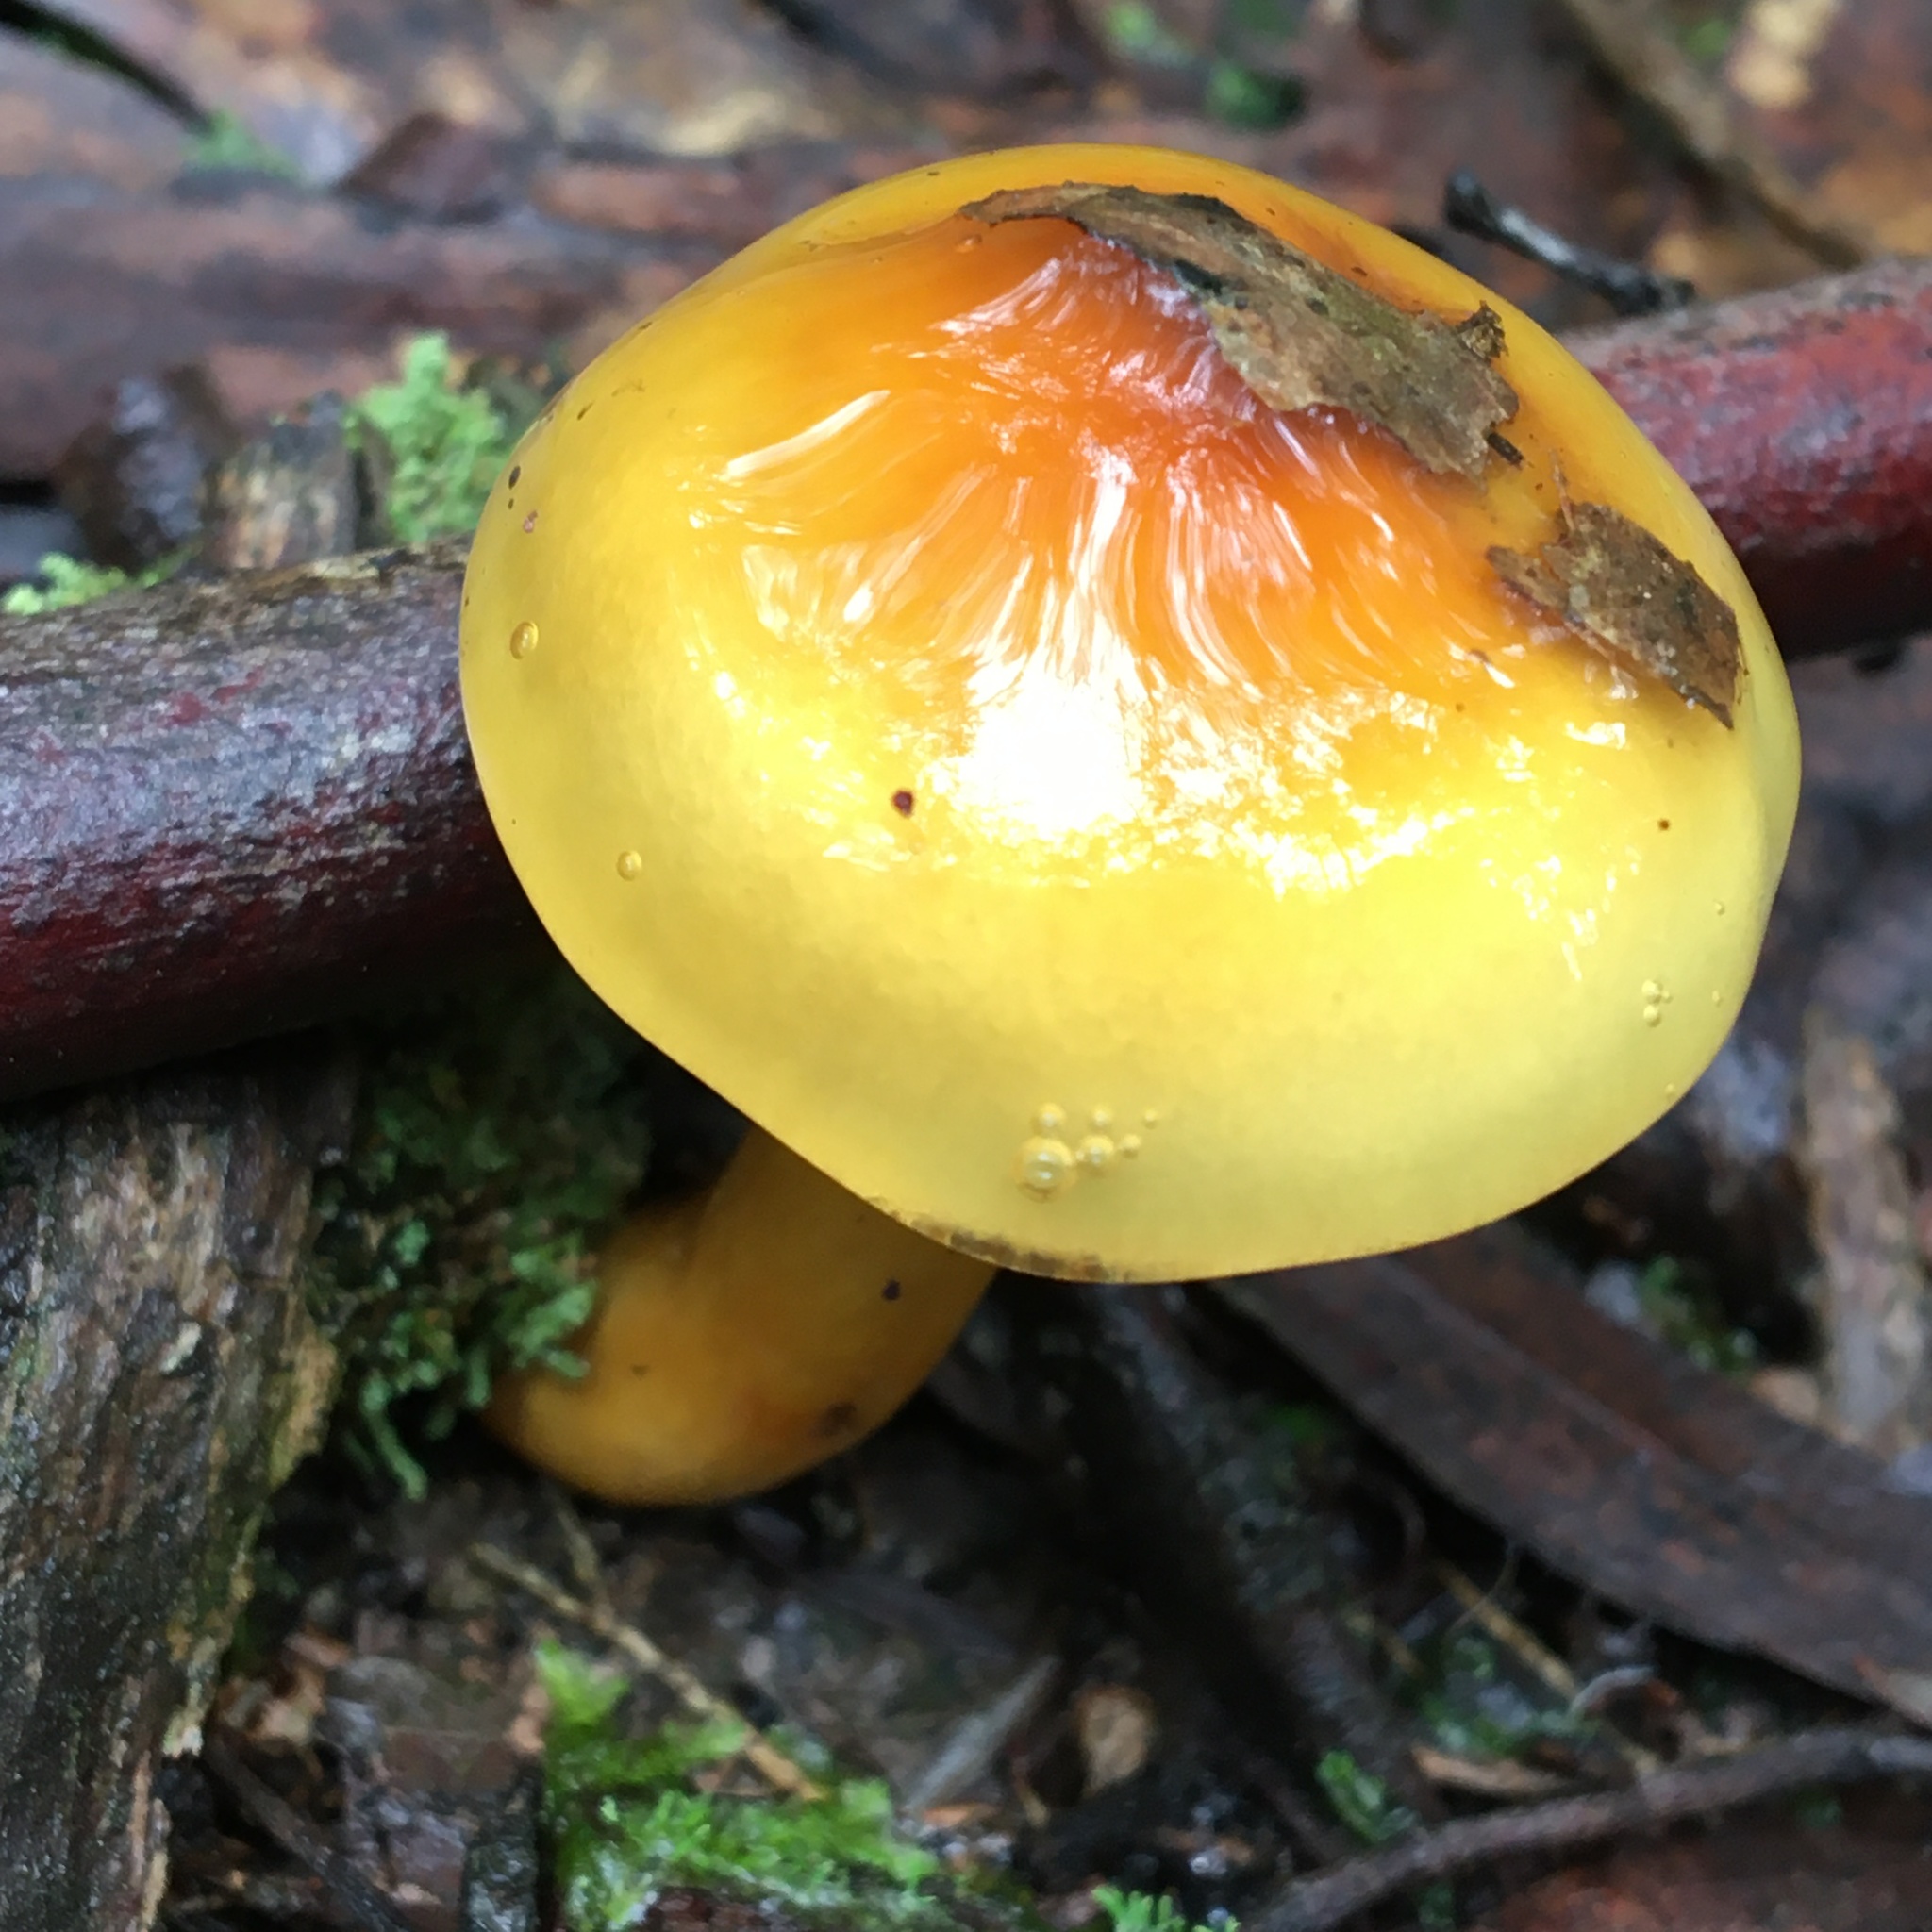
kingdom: Fungi
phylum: Basidiomycota
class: Agaricomycetes
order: Agaricales
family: Cortinariaceae
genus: Cortinarius
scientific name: Cortinarius sinapicolor
